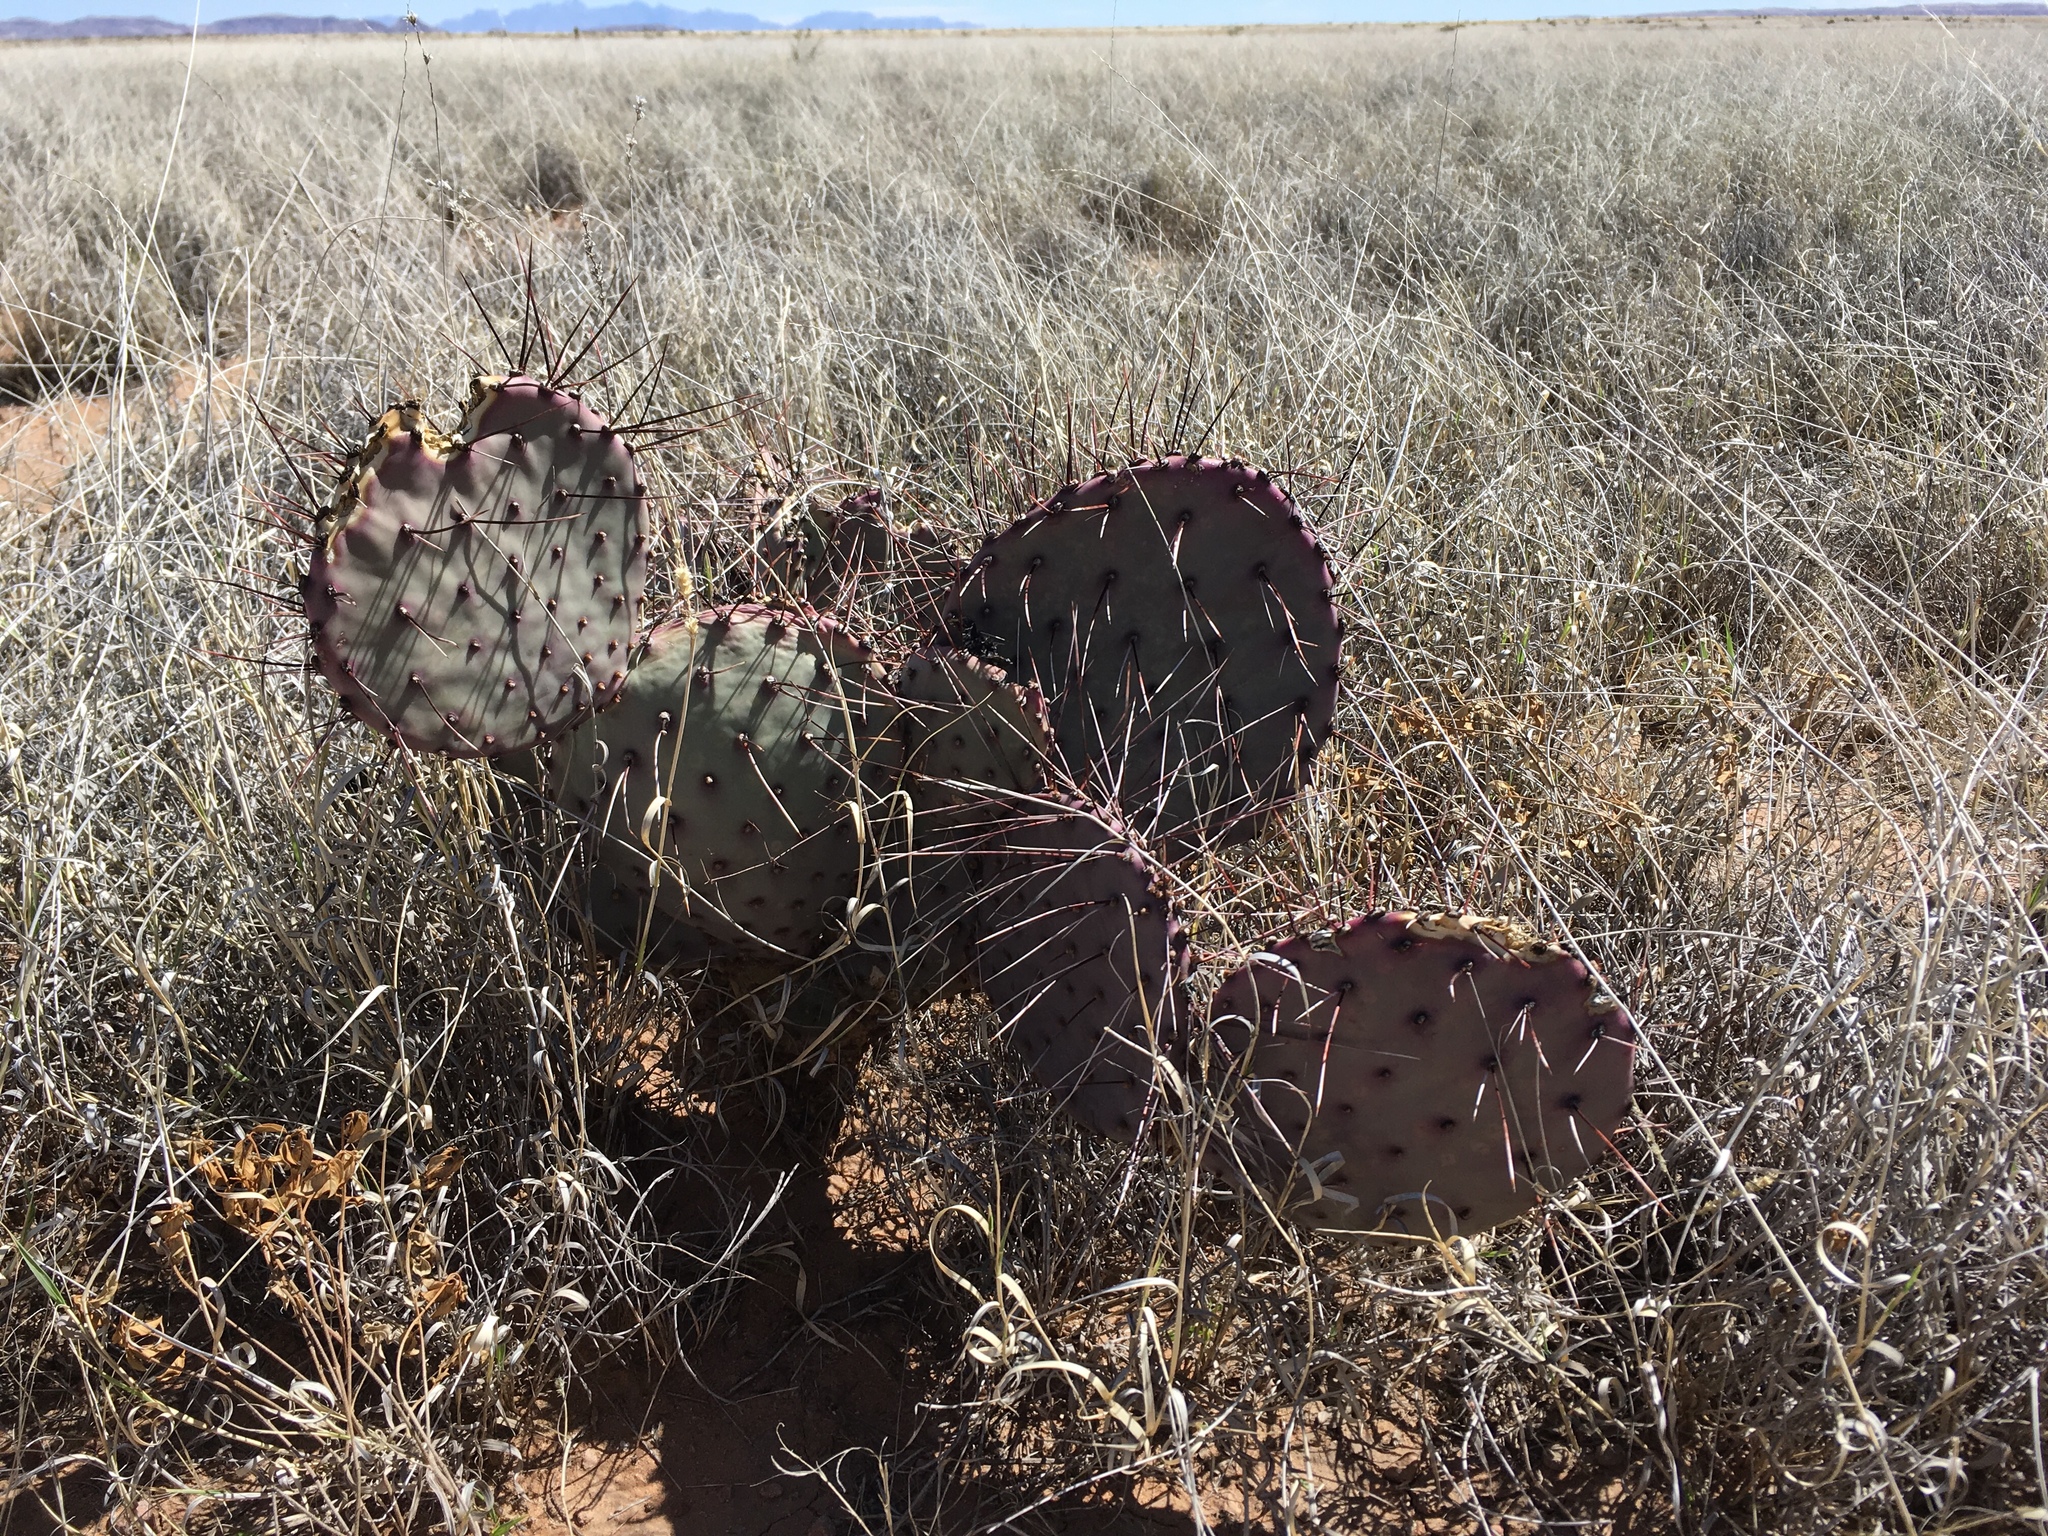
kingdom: Plantae
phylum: Tracheophyta
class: Magnoliopsida
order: Caryophyllales
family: Cactaceae
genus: Opuntia
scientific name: Opuntia macrocentra
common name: Purple prickly-pear
